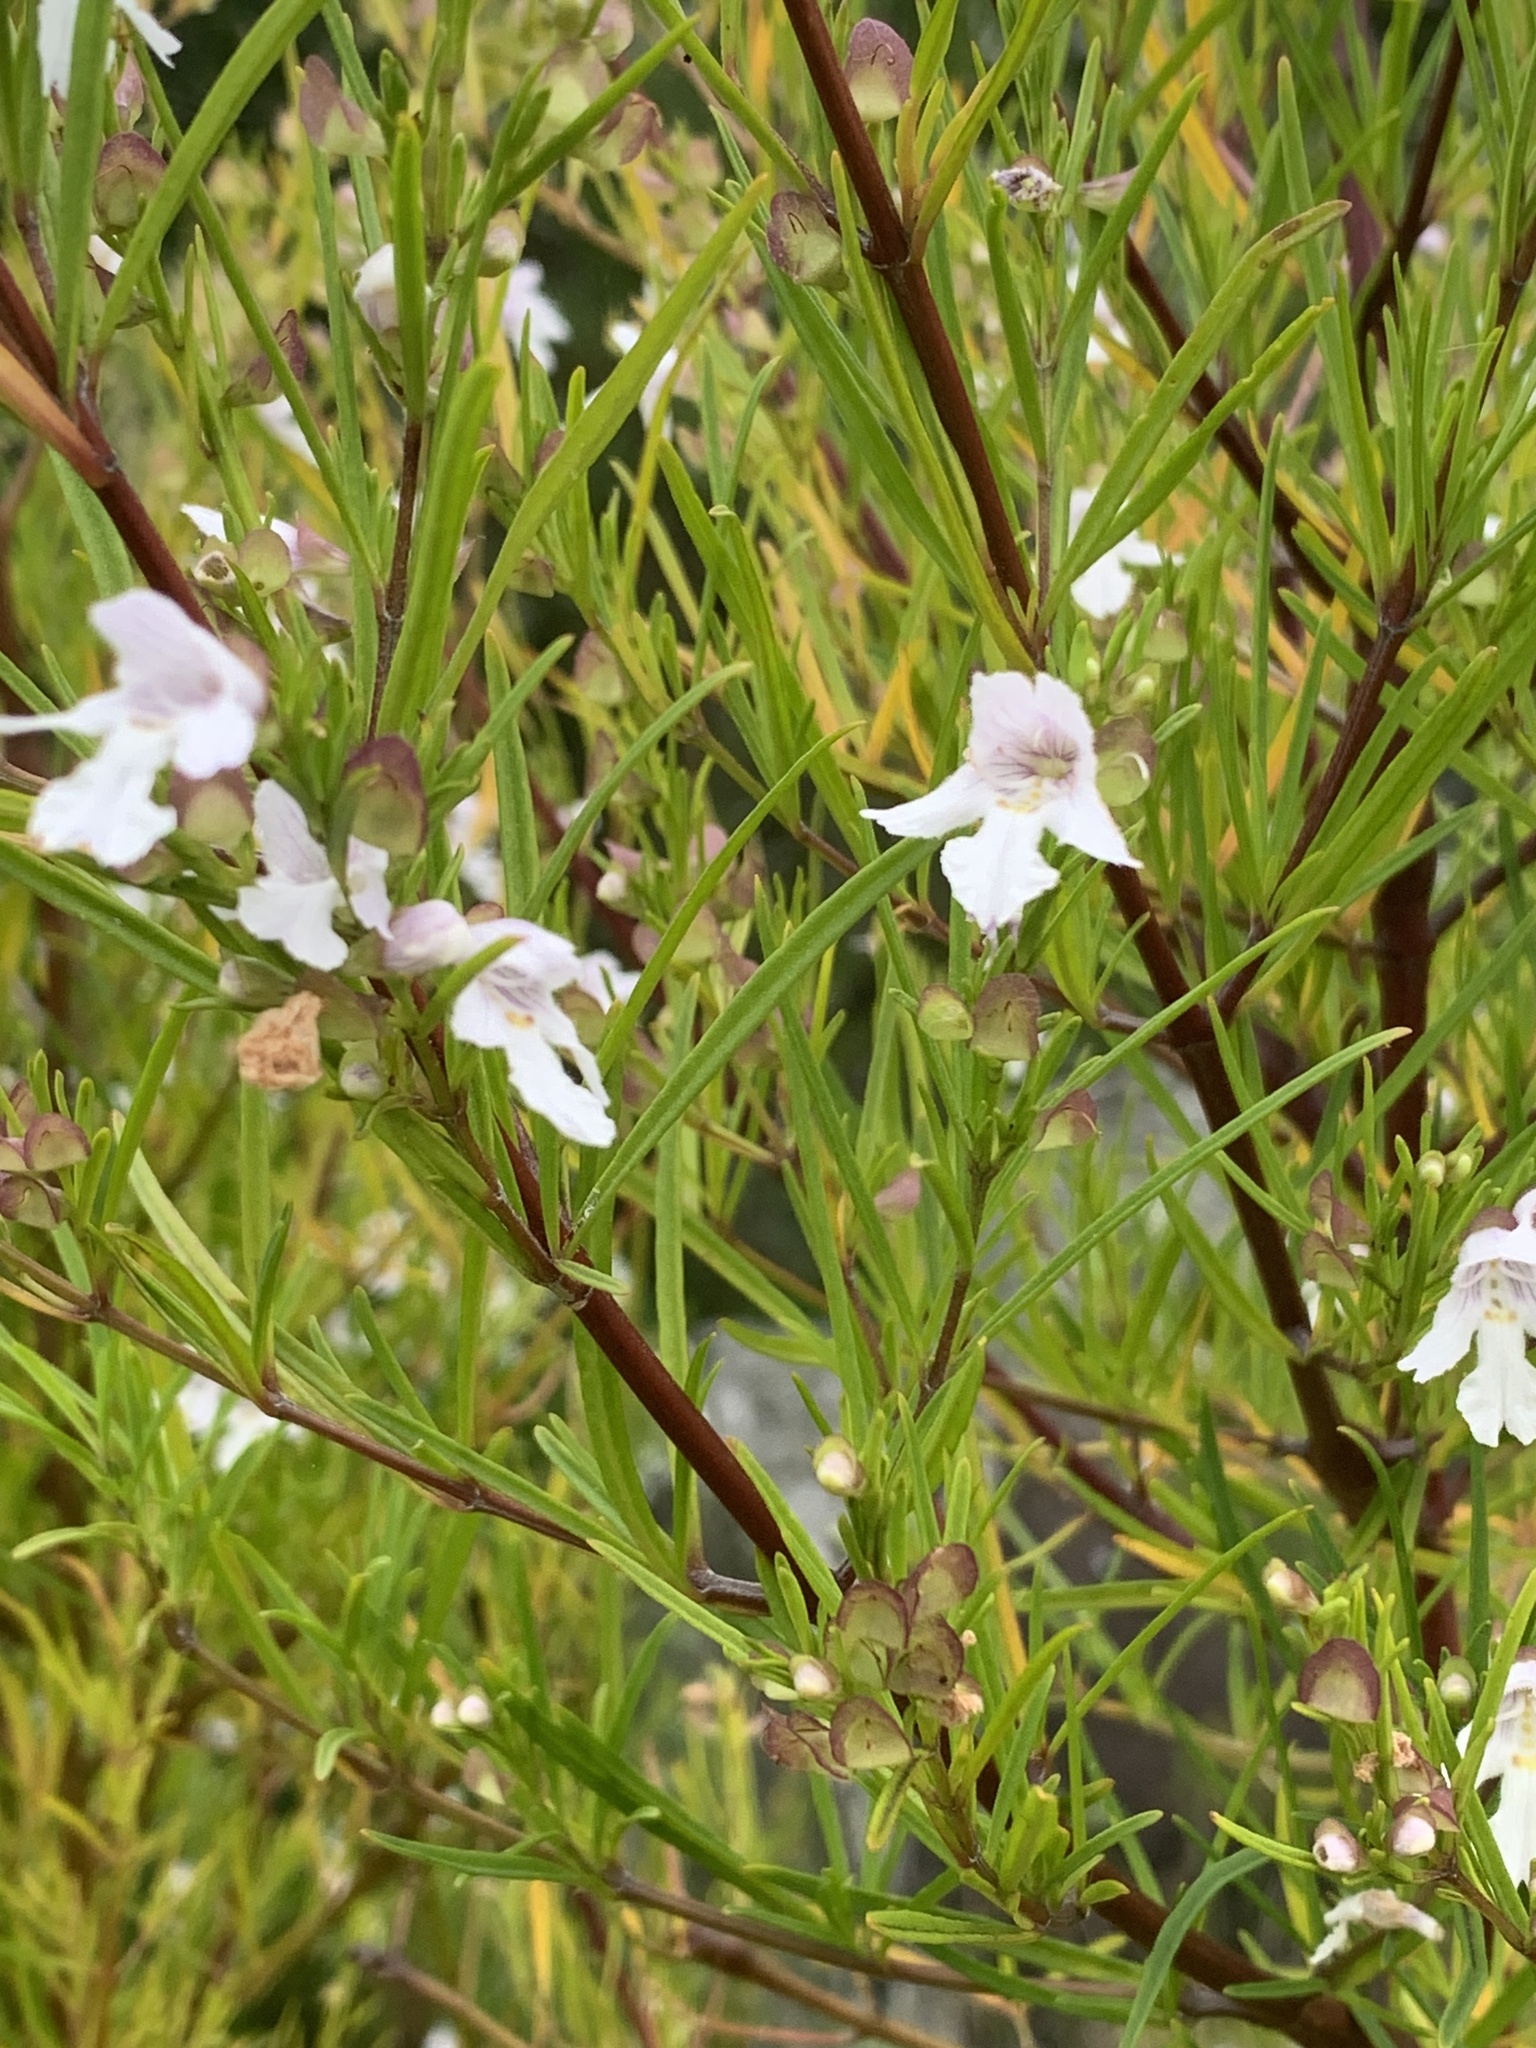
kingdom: Plantae
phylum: Tracheophyta
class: Magnoliopsida
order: Lamiales
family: Lamiaceae
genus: Prostanthera
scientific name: Prostanthera nivea
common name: Snowy mintbush
